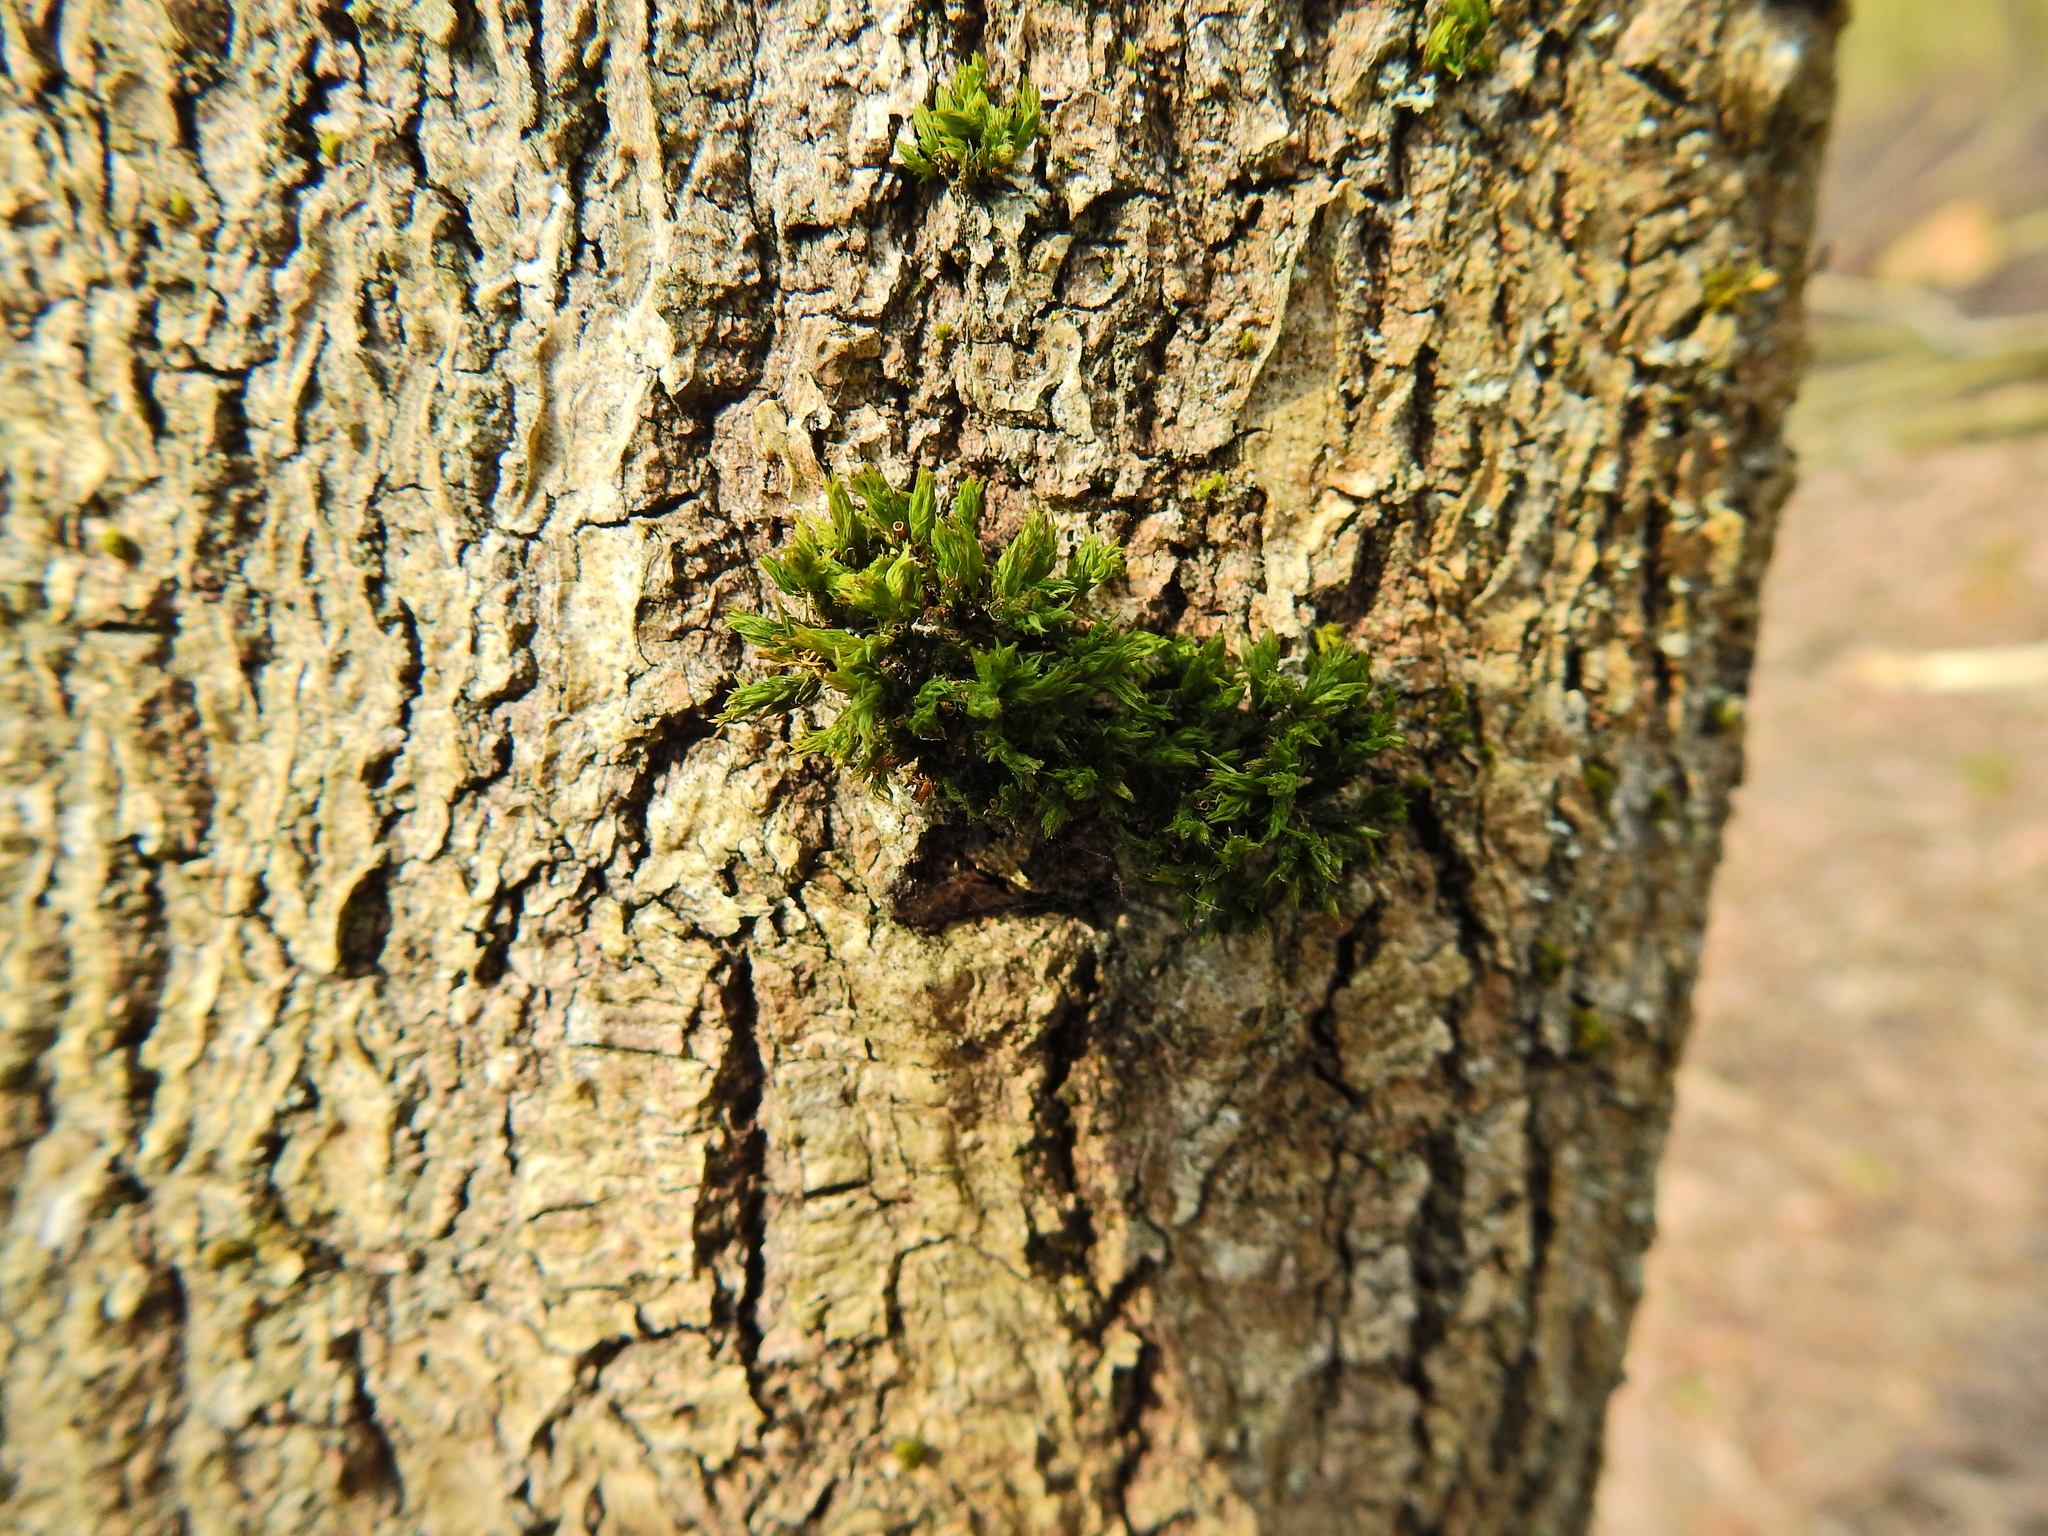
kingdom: Plantae
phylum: Bryophyta
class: Bryopsida
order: Orthotrichales
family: Orthotrichaceae
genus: Lewinskya
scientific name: Lewinskya affinis
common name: Wood bristle-moss
